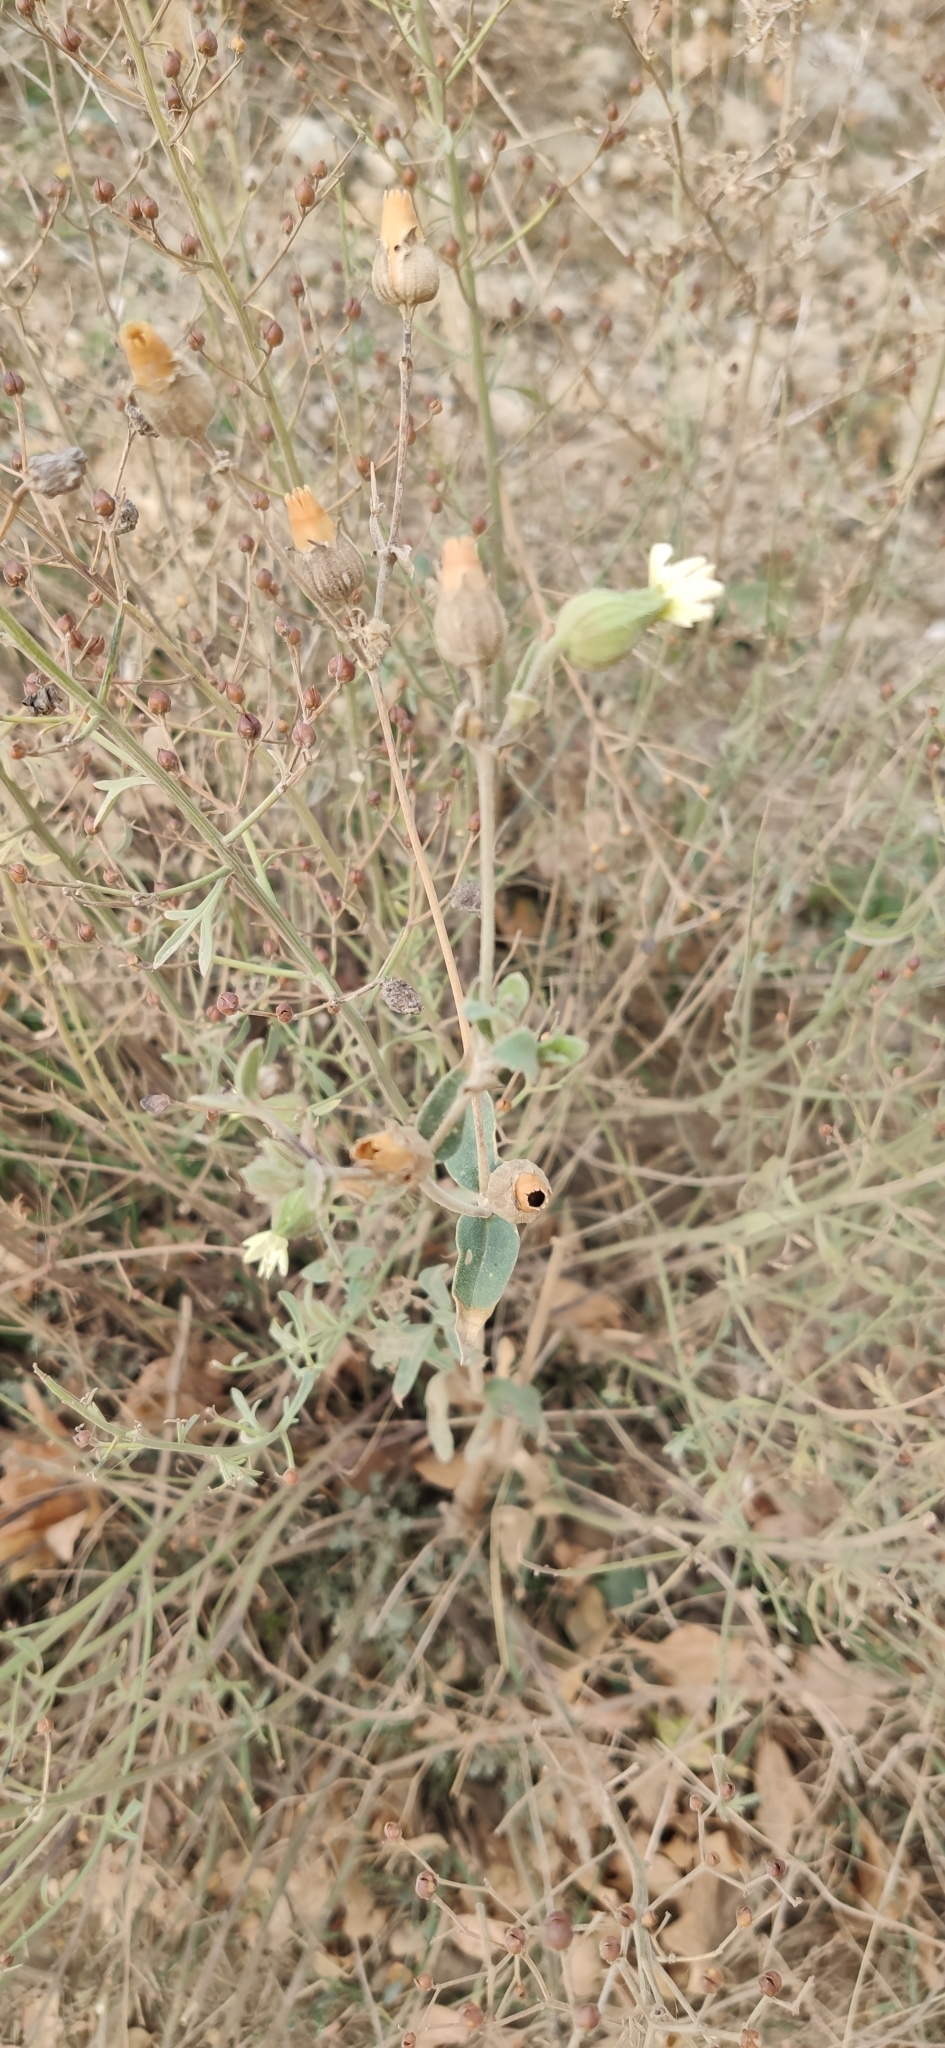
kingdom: Plantae
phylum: Tracheophyta
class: Magnoliopsida
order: Caryophyllales
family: Caryophyllaceae
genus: Silene
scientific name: Silene latifolia
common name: White campion
